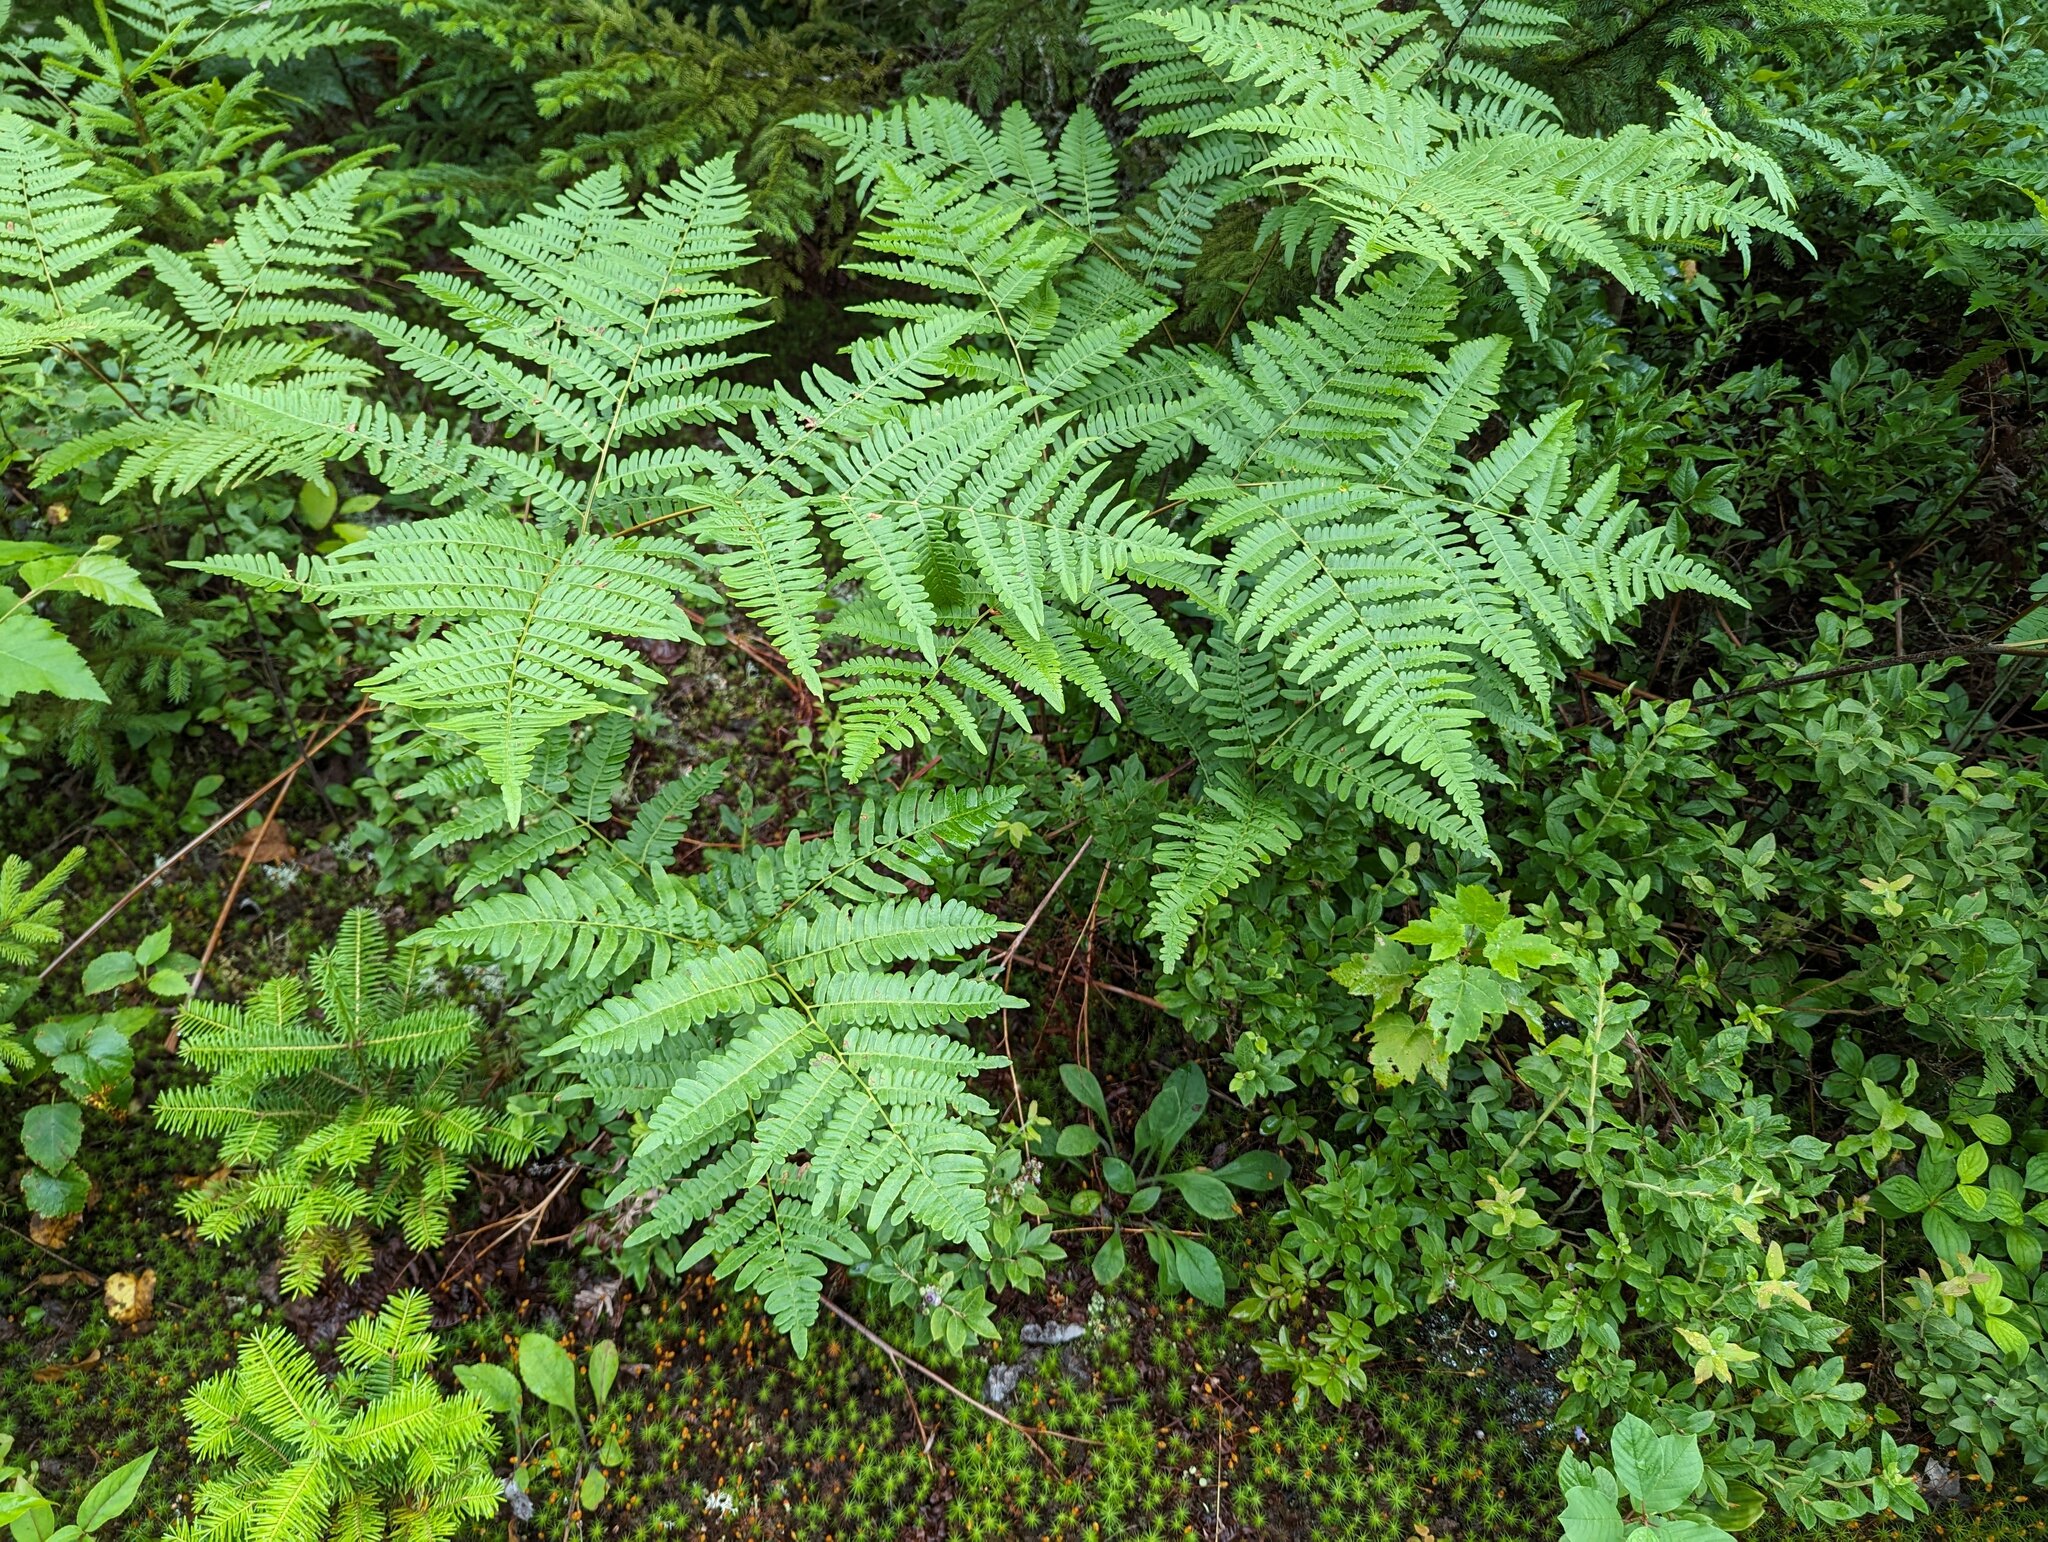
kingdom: Plantae
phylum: Tracheophyta
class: Polypodiopsida
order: Polypodiales
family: Dennstaedtiaceae
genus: Pteridium
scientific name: Pteridium aquilinum
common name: Bracken
